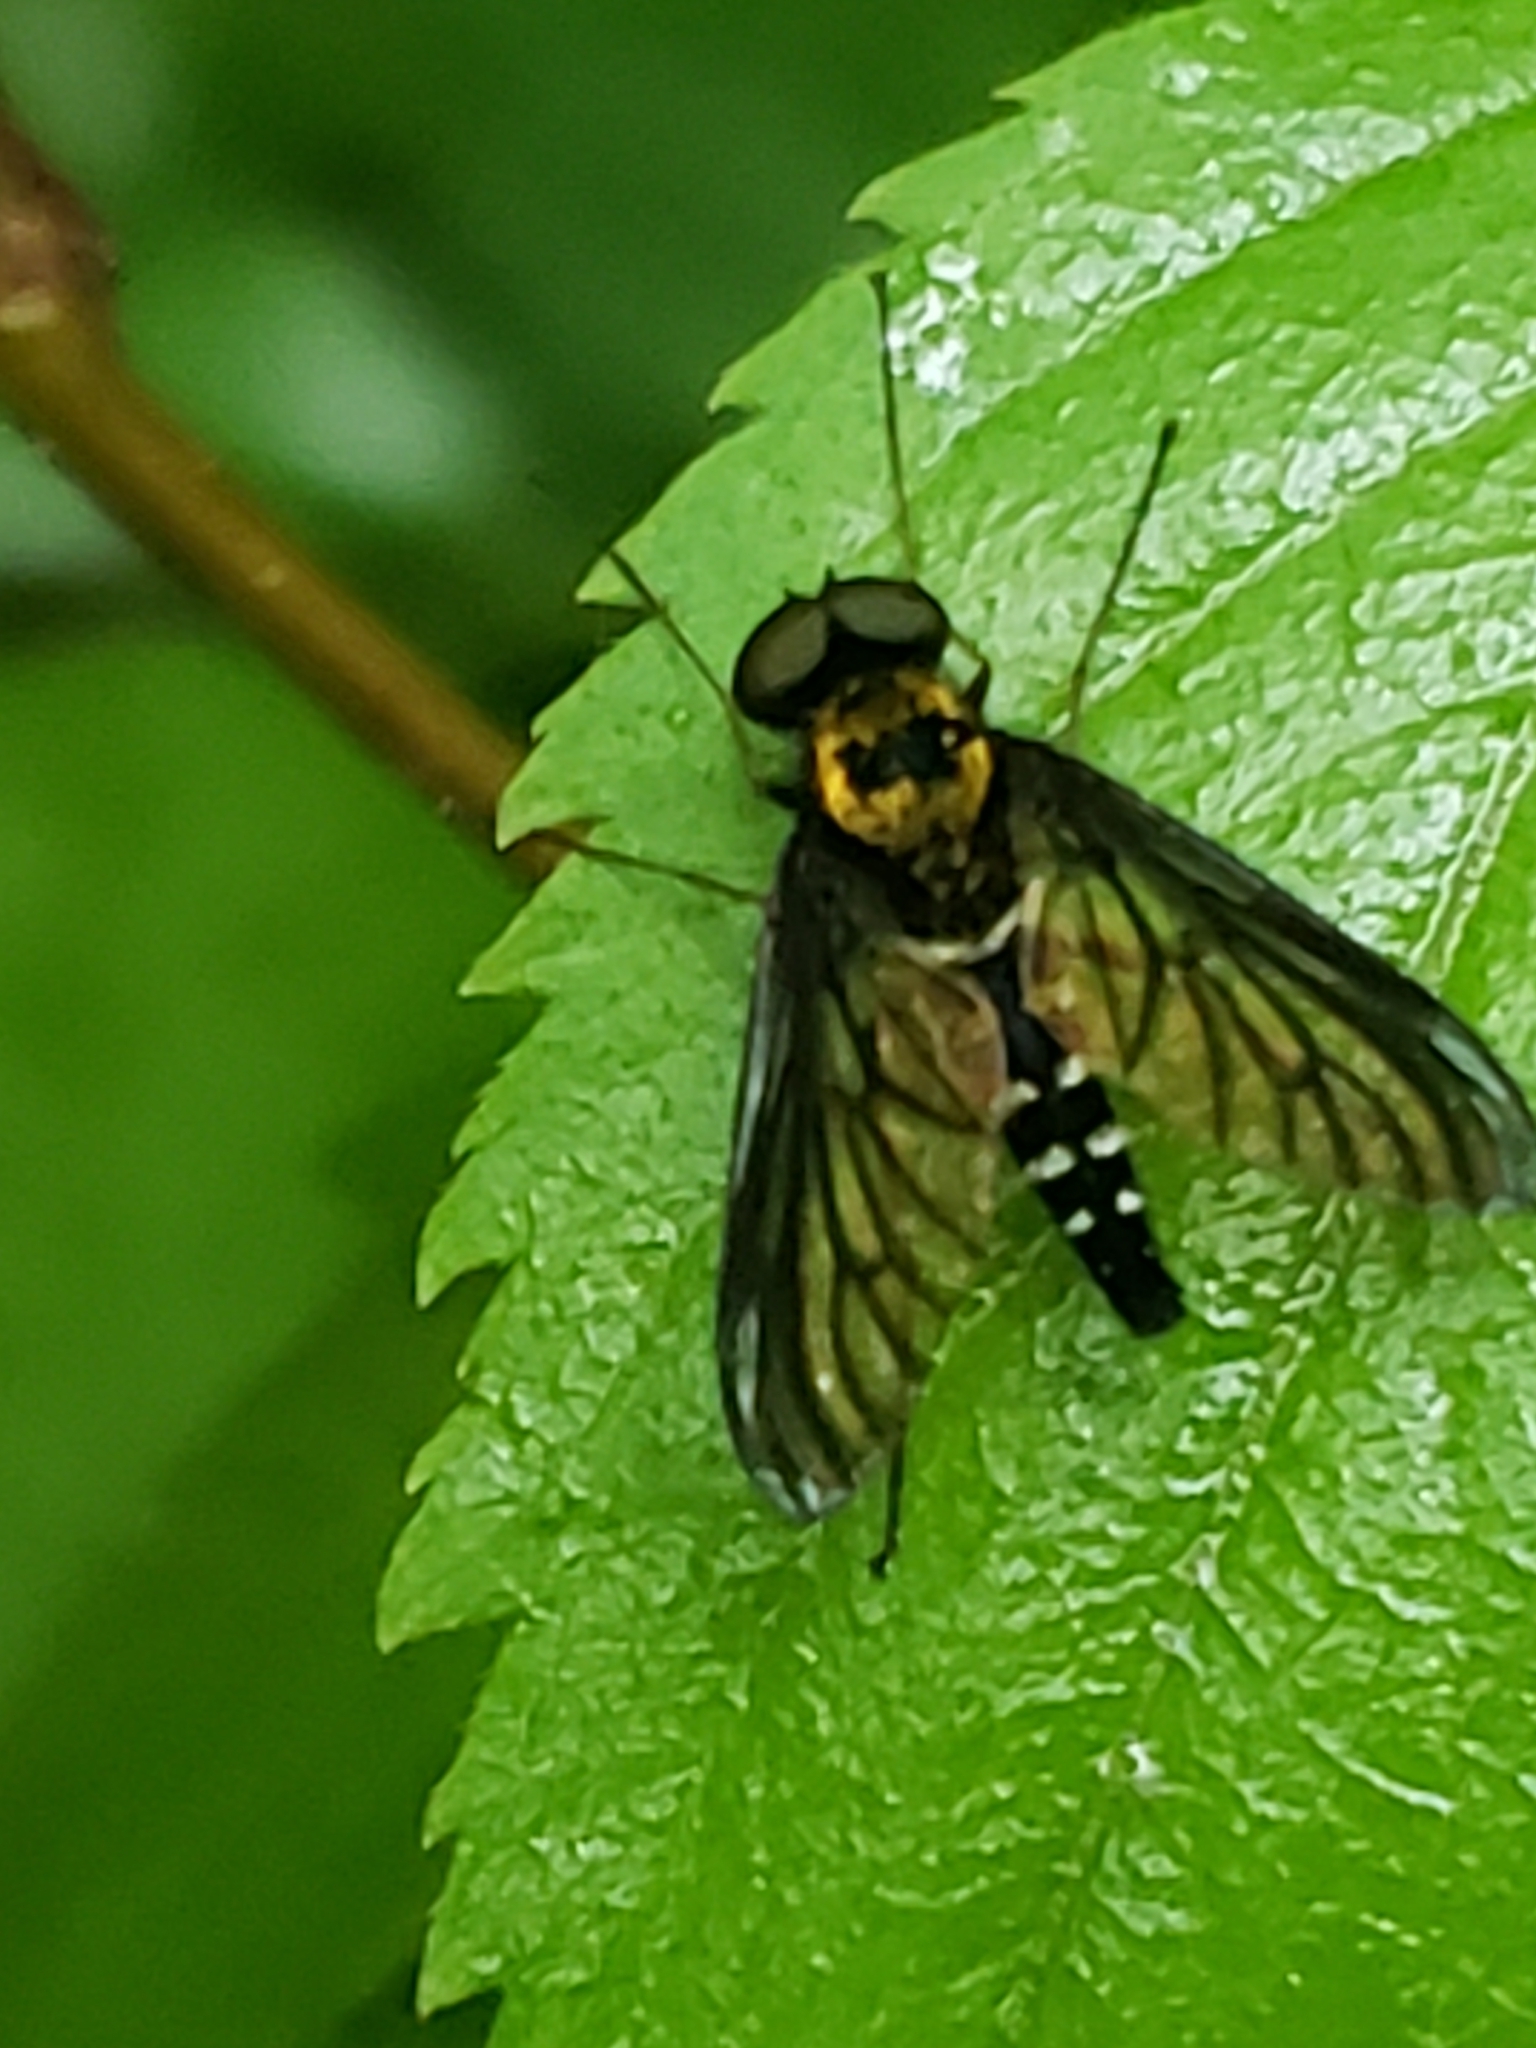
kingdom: Animalia
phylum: Arthropoda
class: Insecta
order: Diptera
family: Rhagionidae
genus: Chrysopilus
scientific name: Chrysopilus thoracicus
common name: Golden-backed snipe fly
